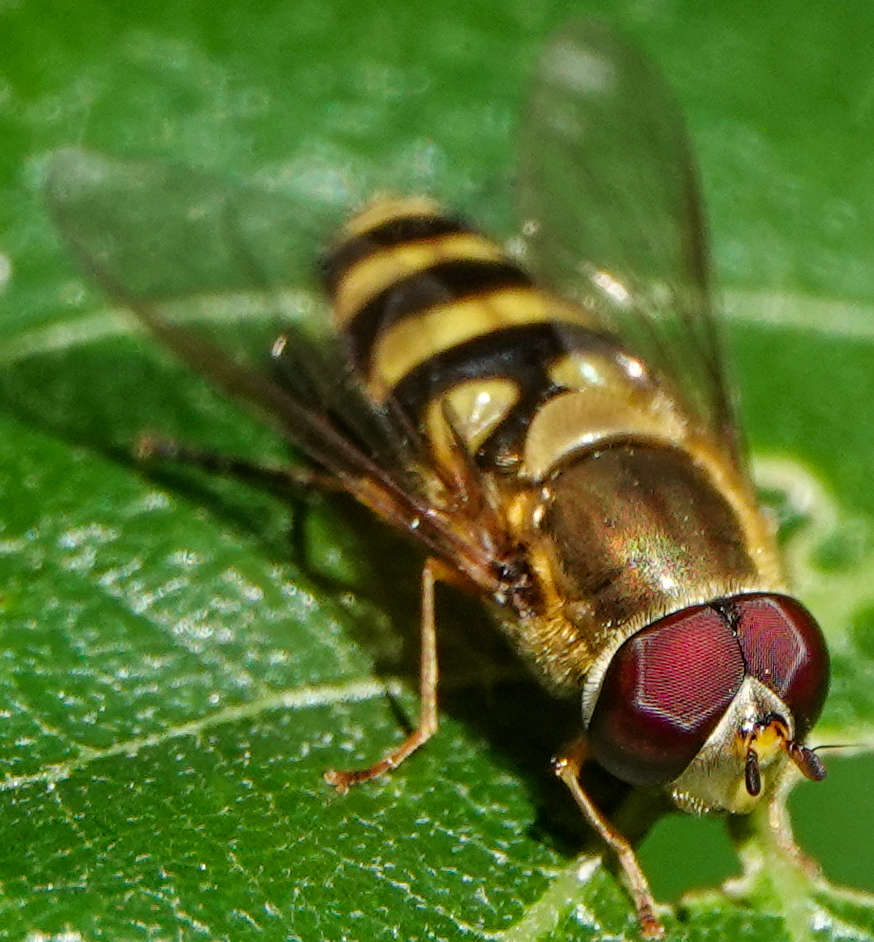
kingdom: Animalia
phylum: Arthropoda
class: Insecta
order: Diptera
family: Syrphidae
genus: Syrphus
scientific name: Syrphus
